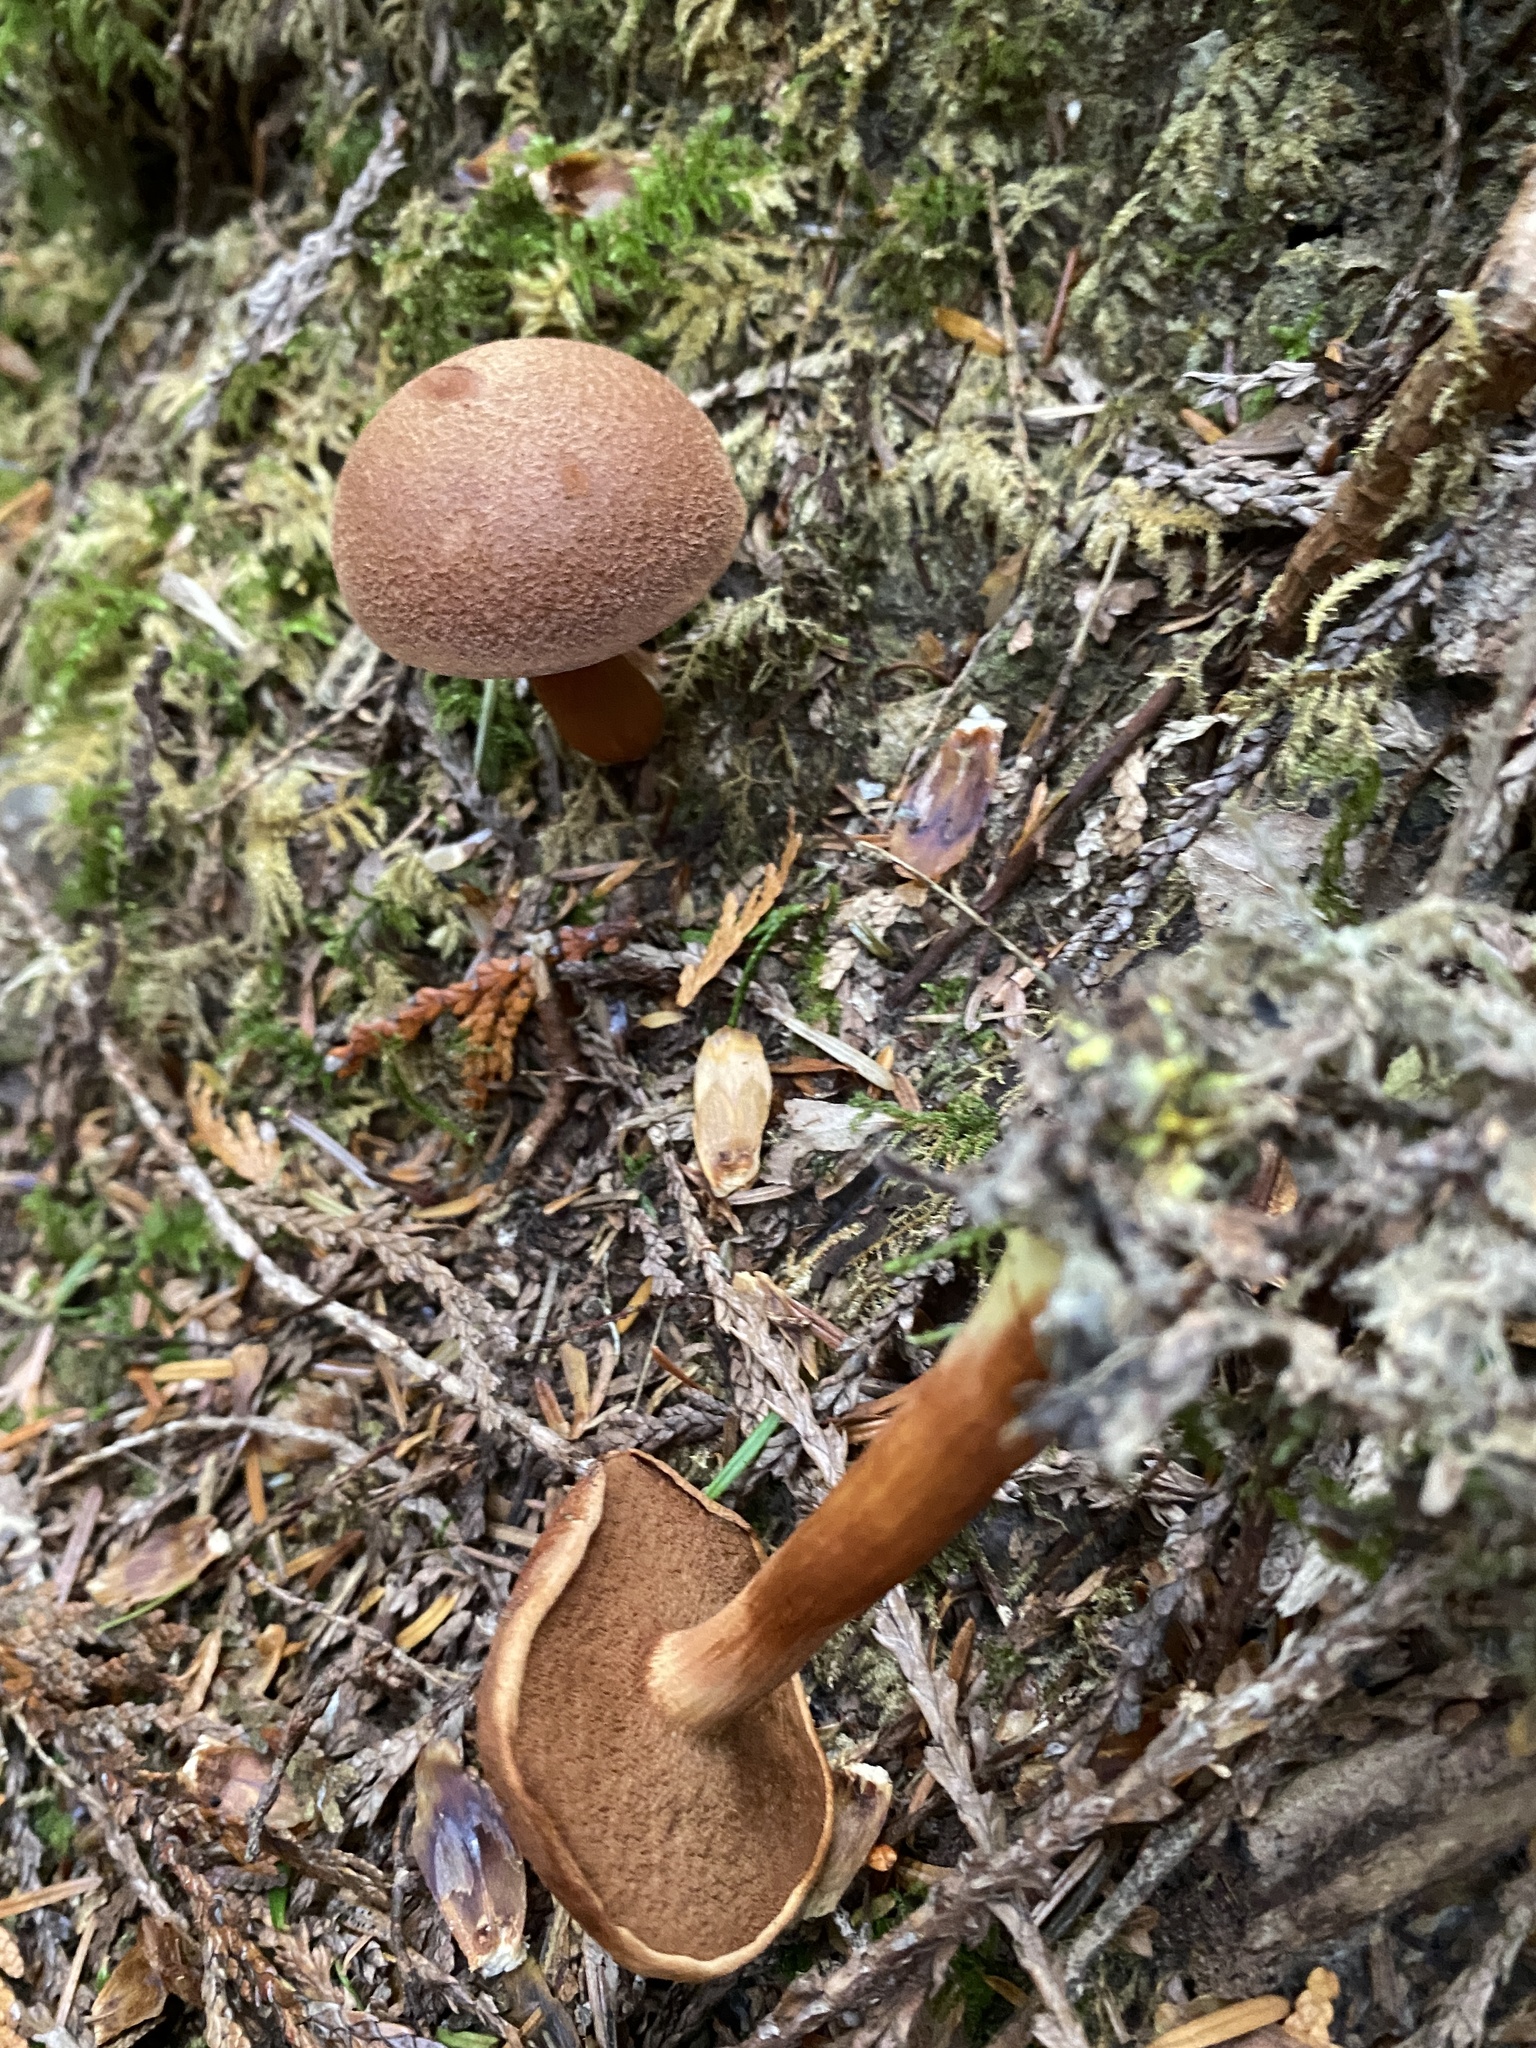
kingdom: Fungi
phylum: Basidiomycota
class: Agaricomycetes
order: Boletales
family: Boletaceae
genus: Chalciporus
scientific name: Chalciporus piperatus
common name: Peppery bolete
